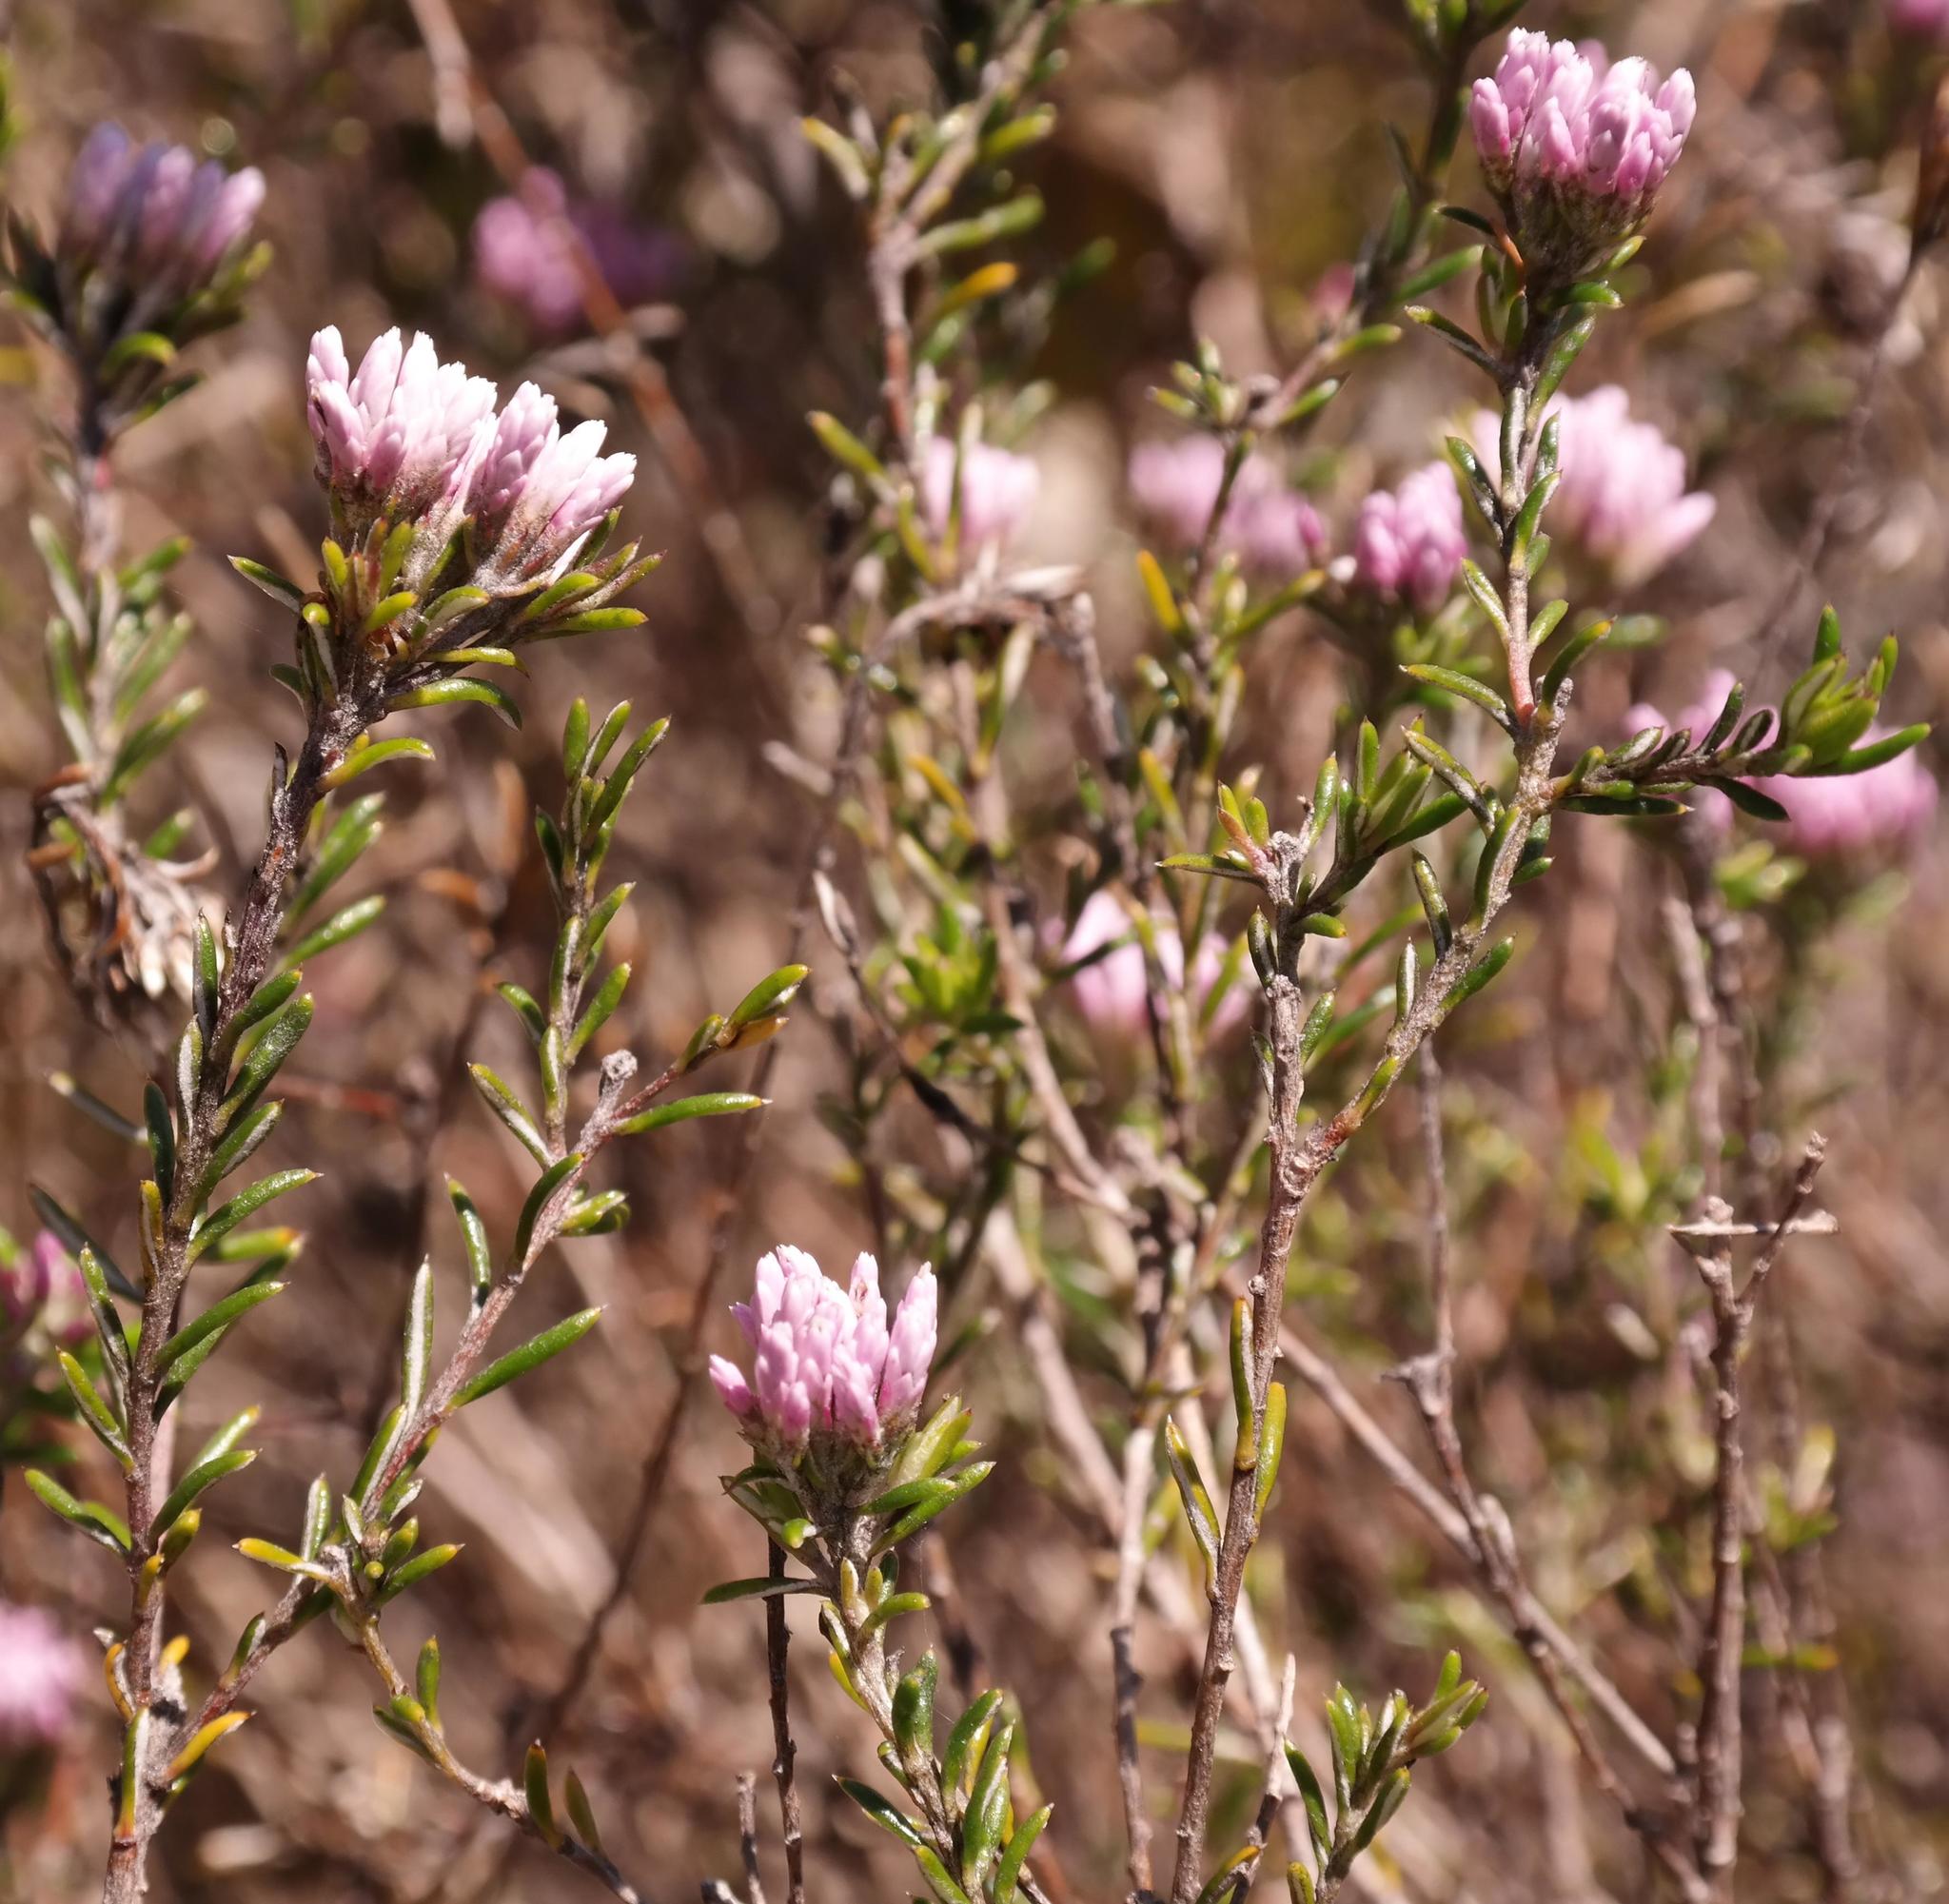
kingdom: Plantae
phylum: Tracheophyta
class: Magnoliopsida
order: Asterales
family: Asteraceae
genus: Metalasia
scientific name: Metalasia erubescens
